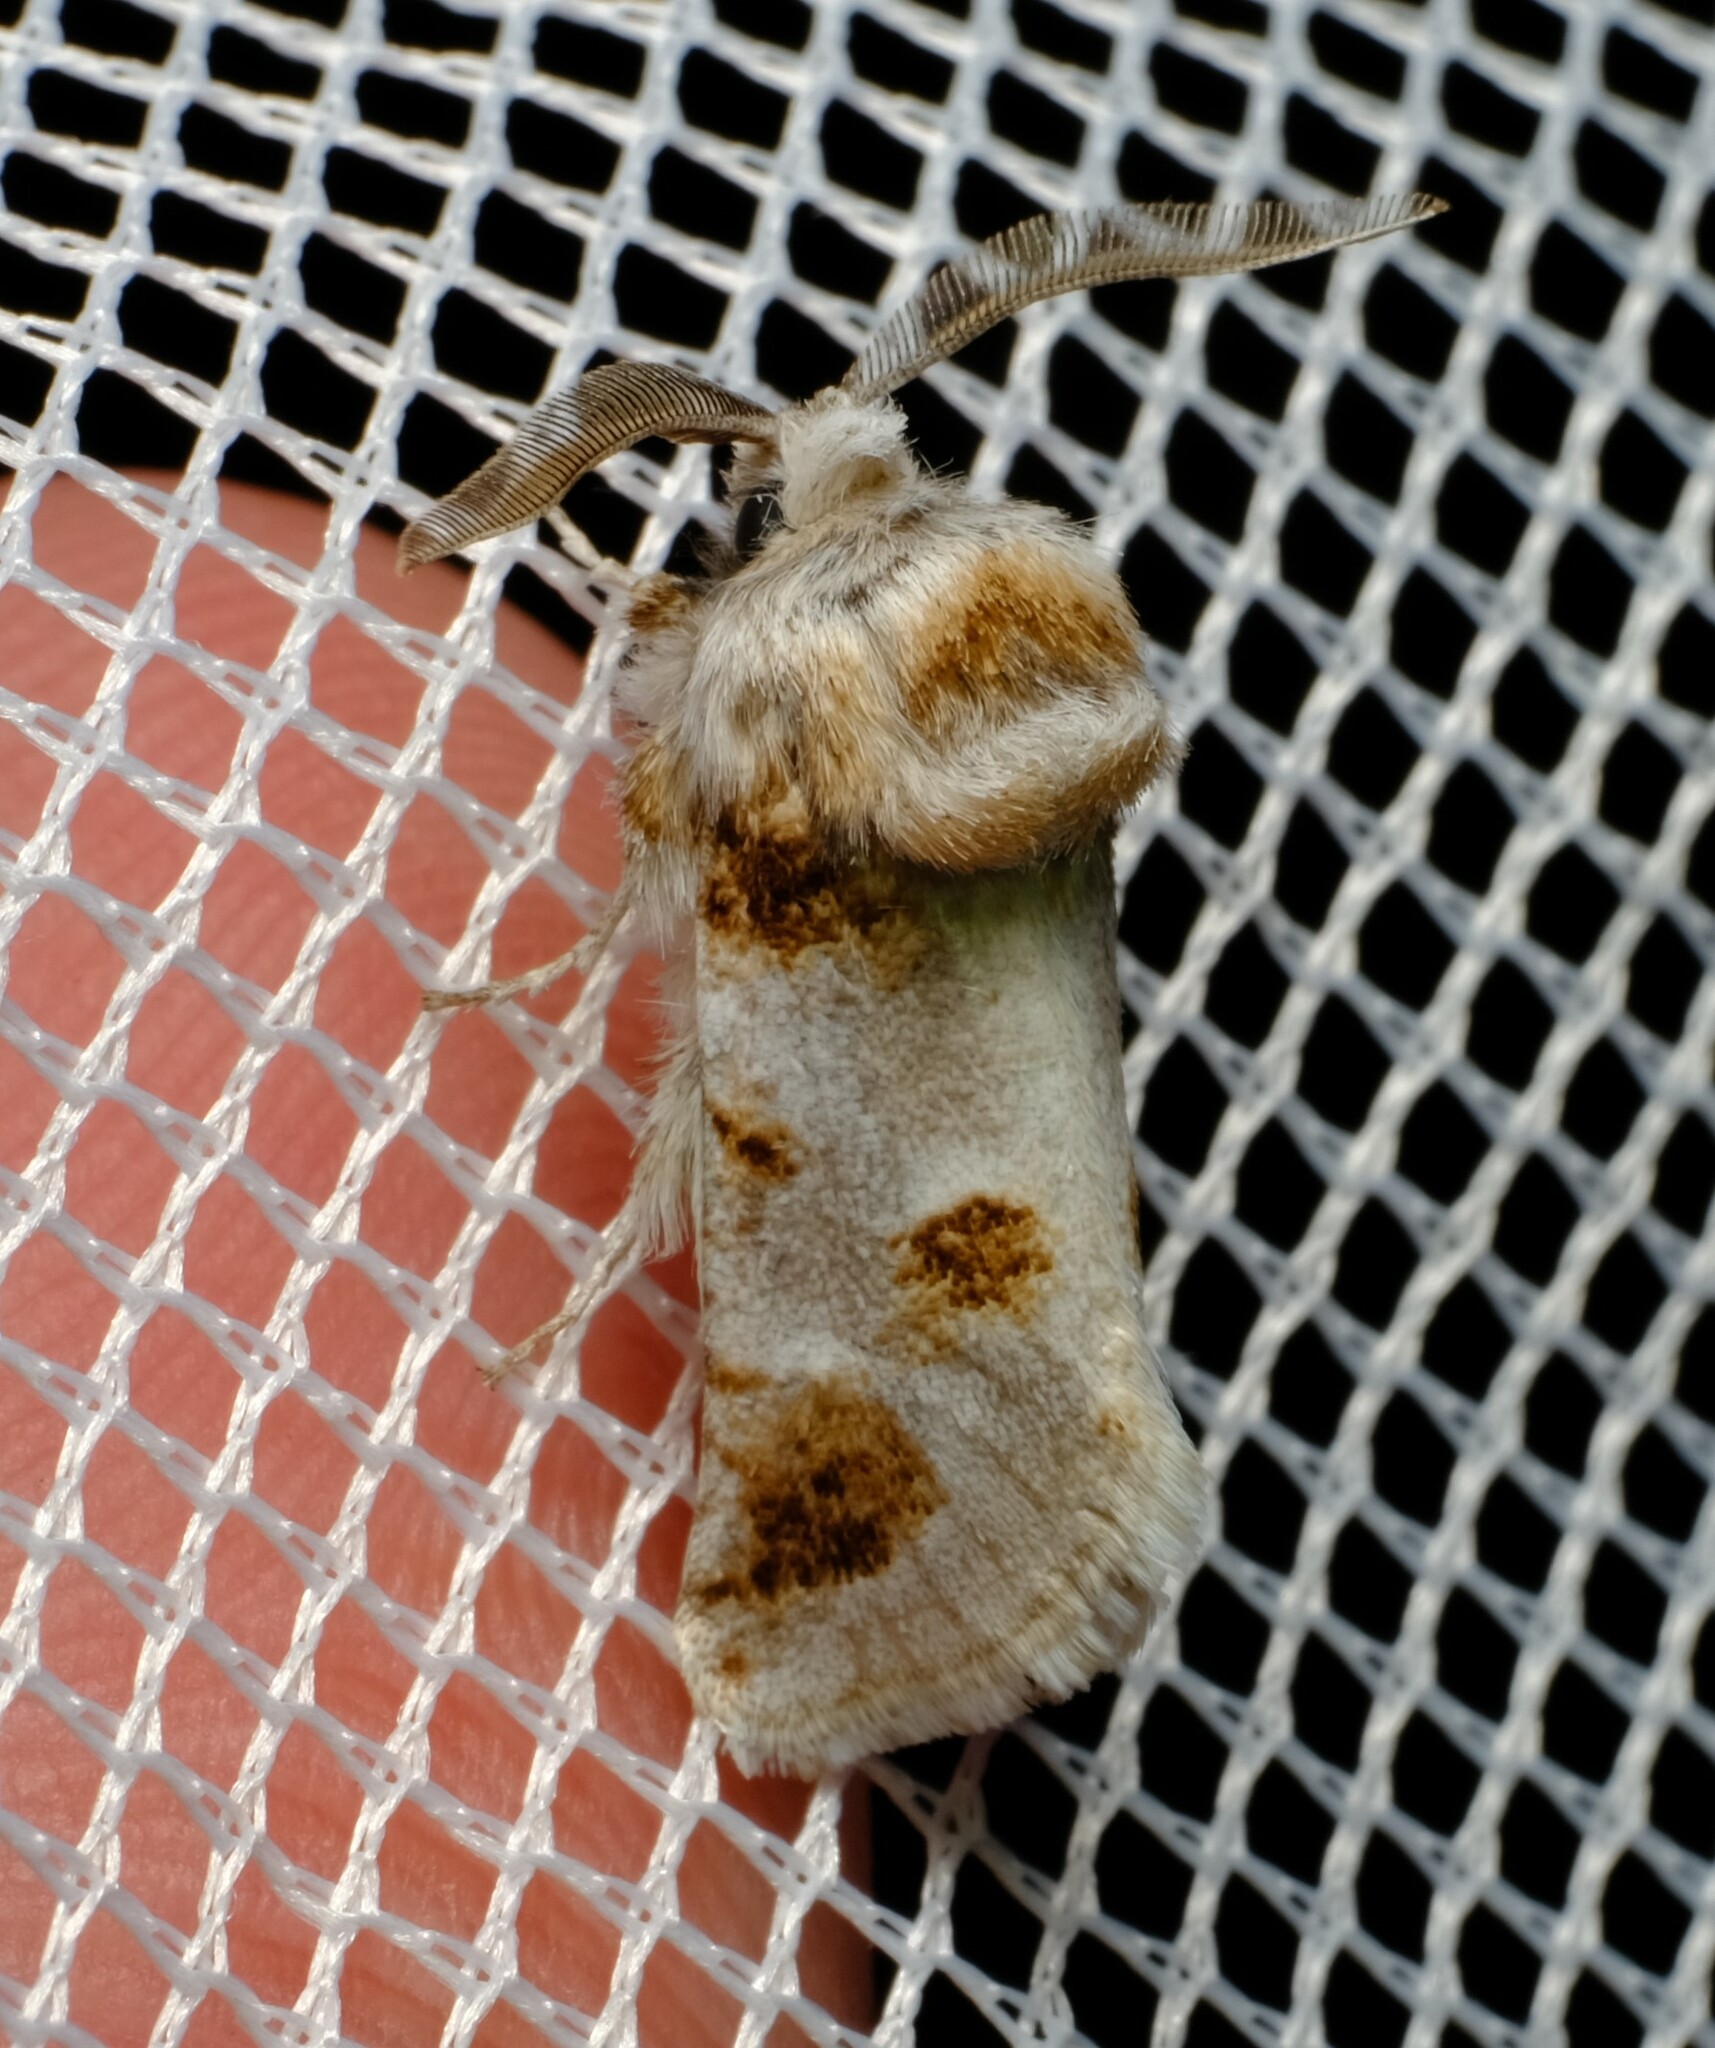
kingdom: Animalia
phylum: Arthropoda
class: Insecta
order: Lepidoptera
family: Cossidae
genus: Culama
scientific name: Culama dasythrix
